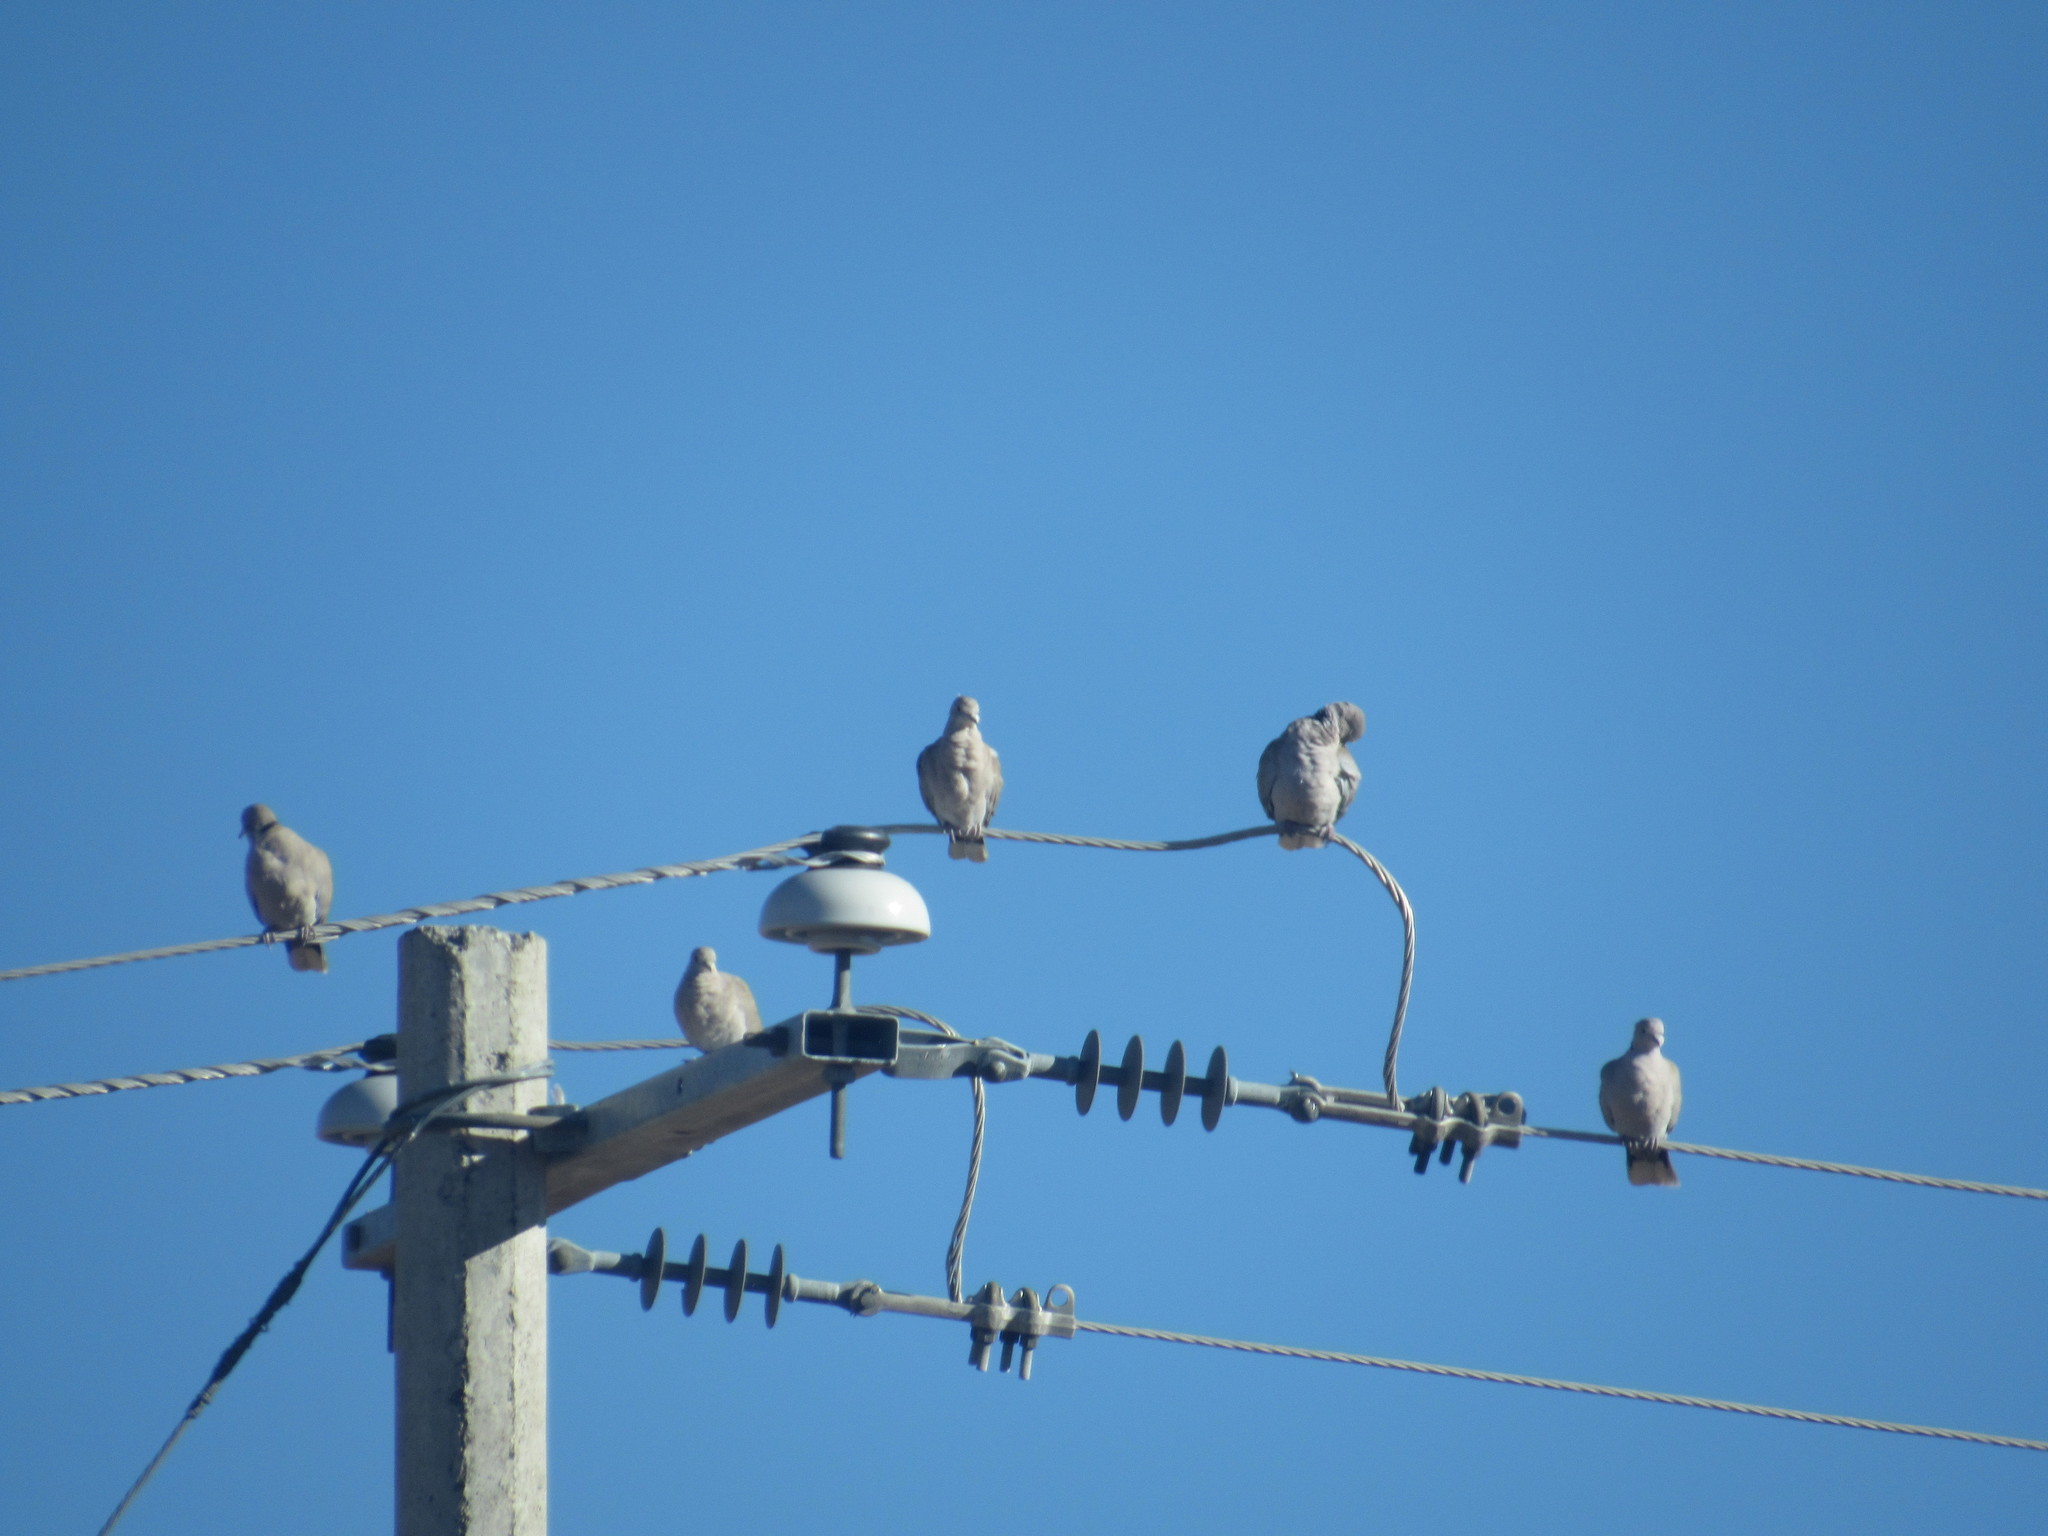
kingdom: Animalia
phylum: Chordata
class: Aves
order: Columbiformes
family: Columbidae
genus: Streptopelia
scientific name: Streptopelia decaocto
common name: Eurasian collared dove
